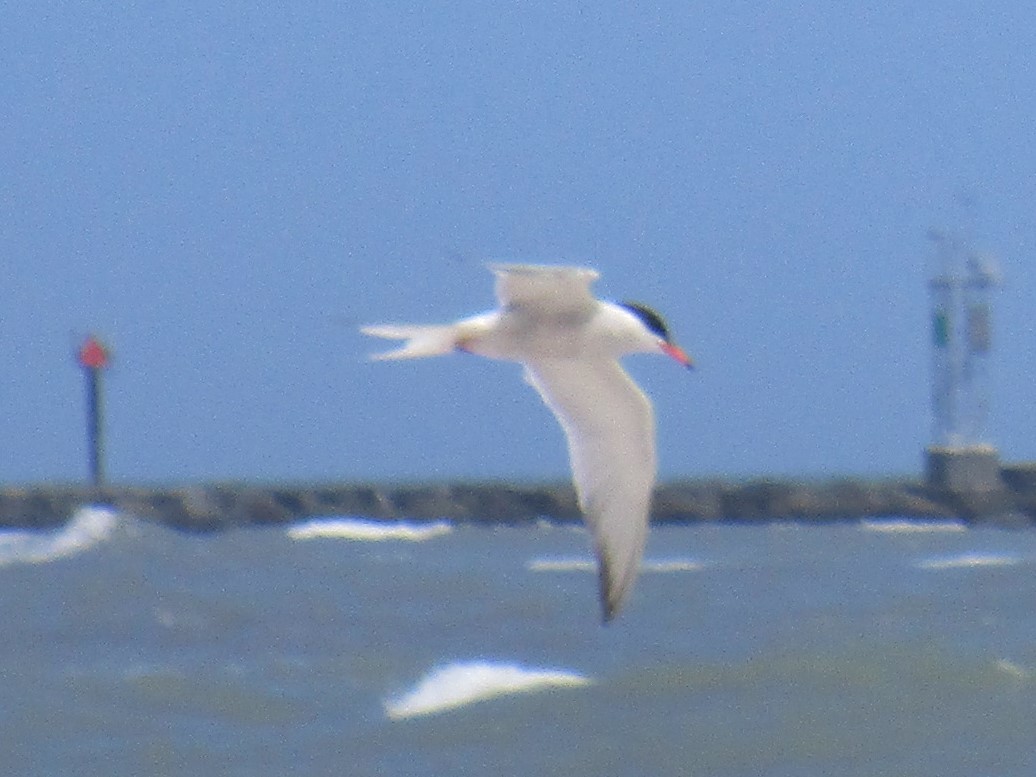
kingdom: Animalia
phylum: Chordata
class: Aves
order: Charadriiformes
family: Laridae
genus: Sterna
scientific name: Sterna hirundo
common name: Common tern
